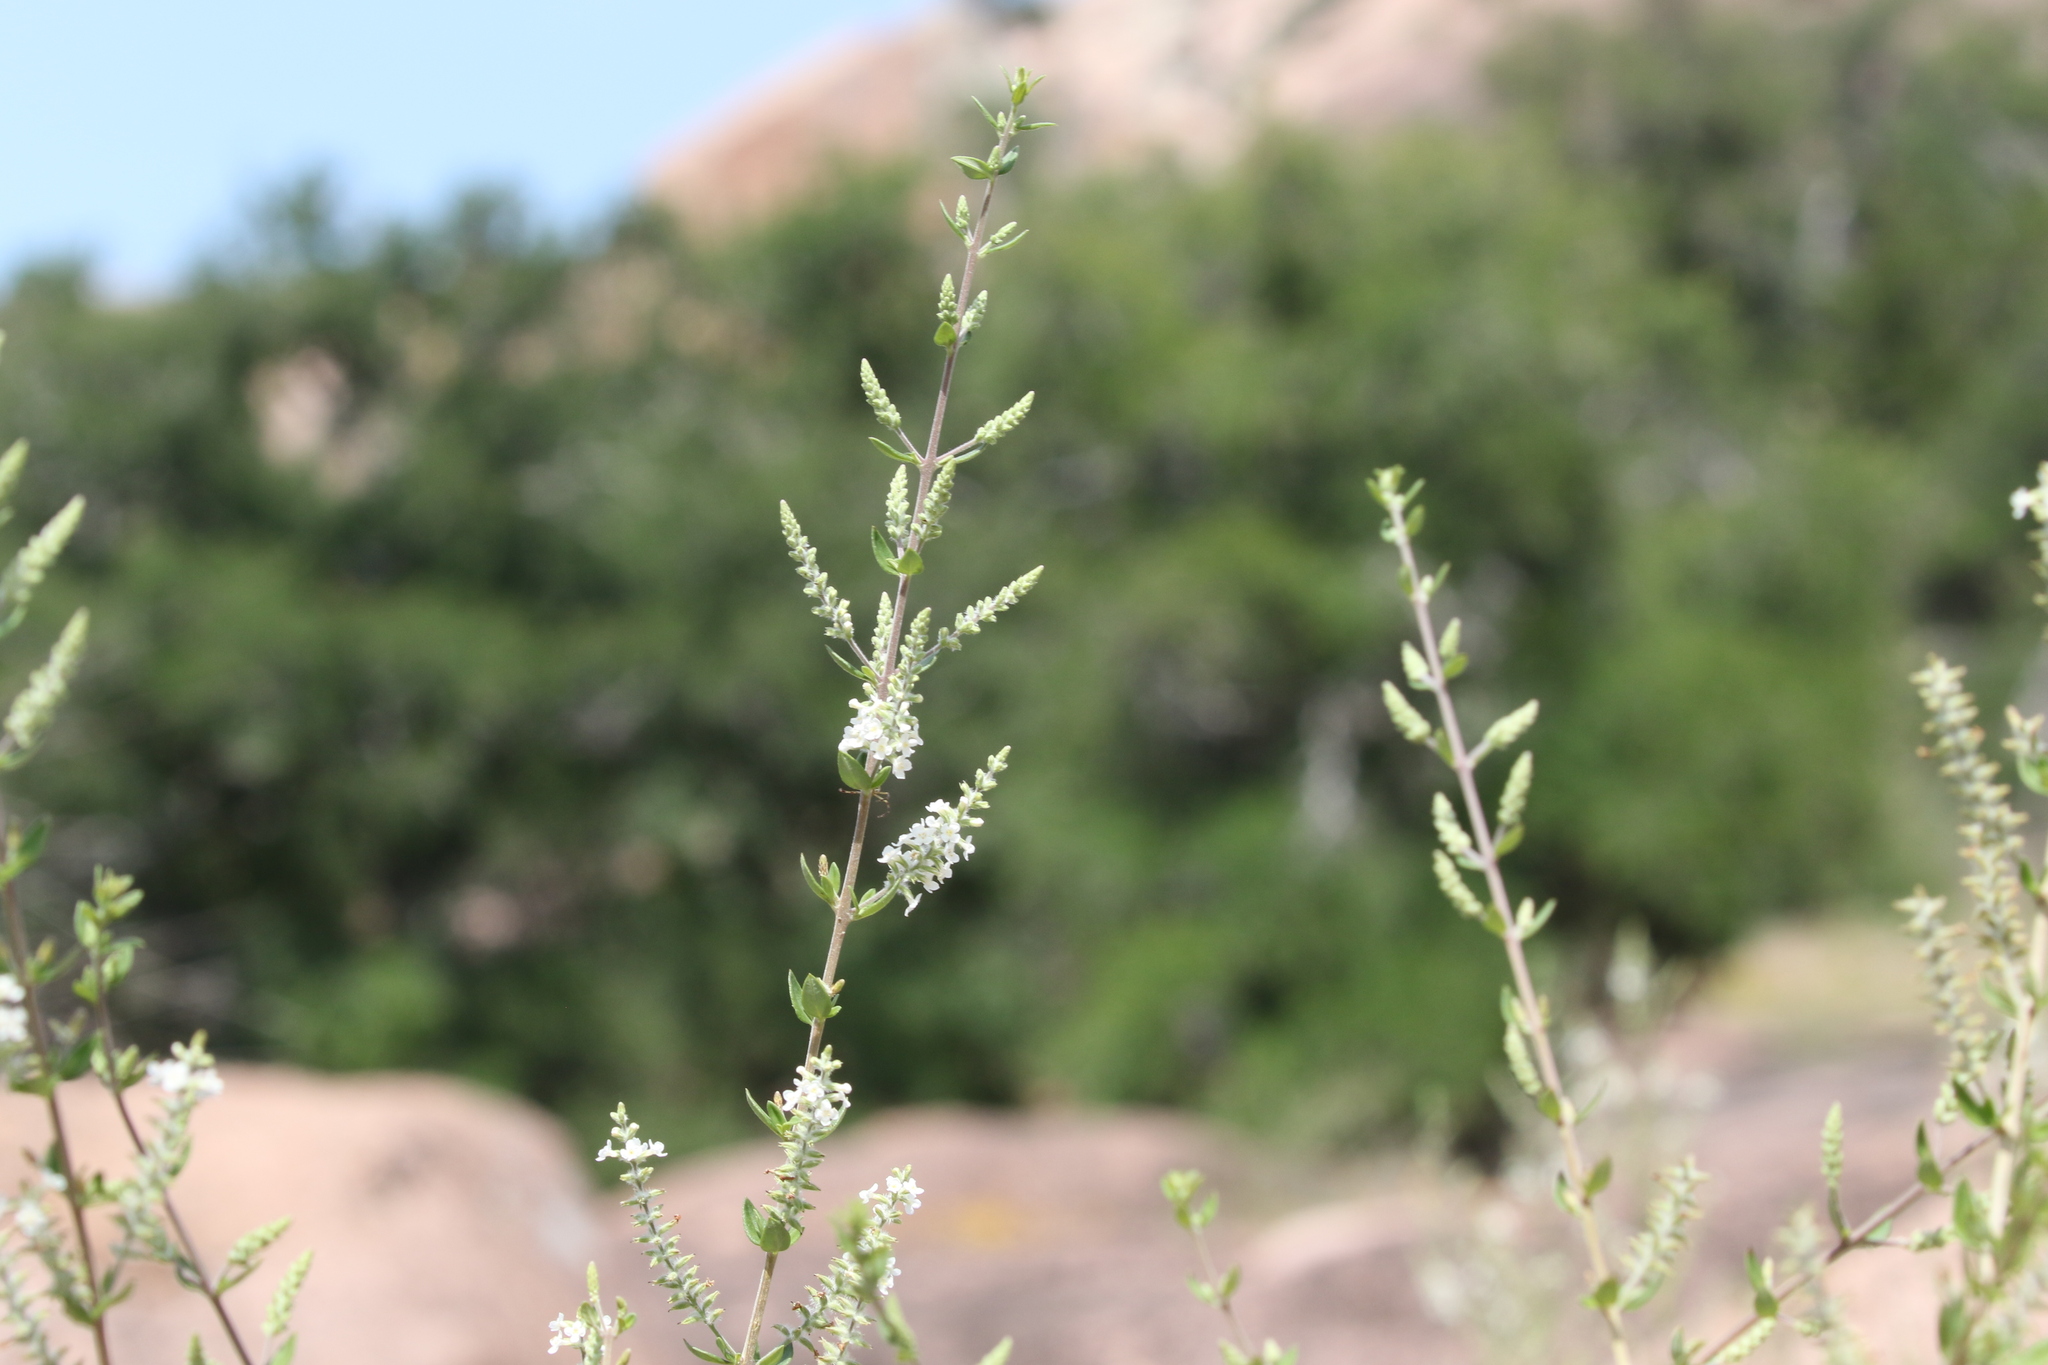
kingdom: Plantae
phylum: Tracheophyta
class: Magnoliopsida
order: Lamiales
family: Verbenaceae
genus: Aloysia
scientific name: Aloysia gratissima
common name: Common bee-brush
